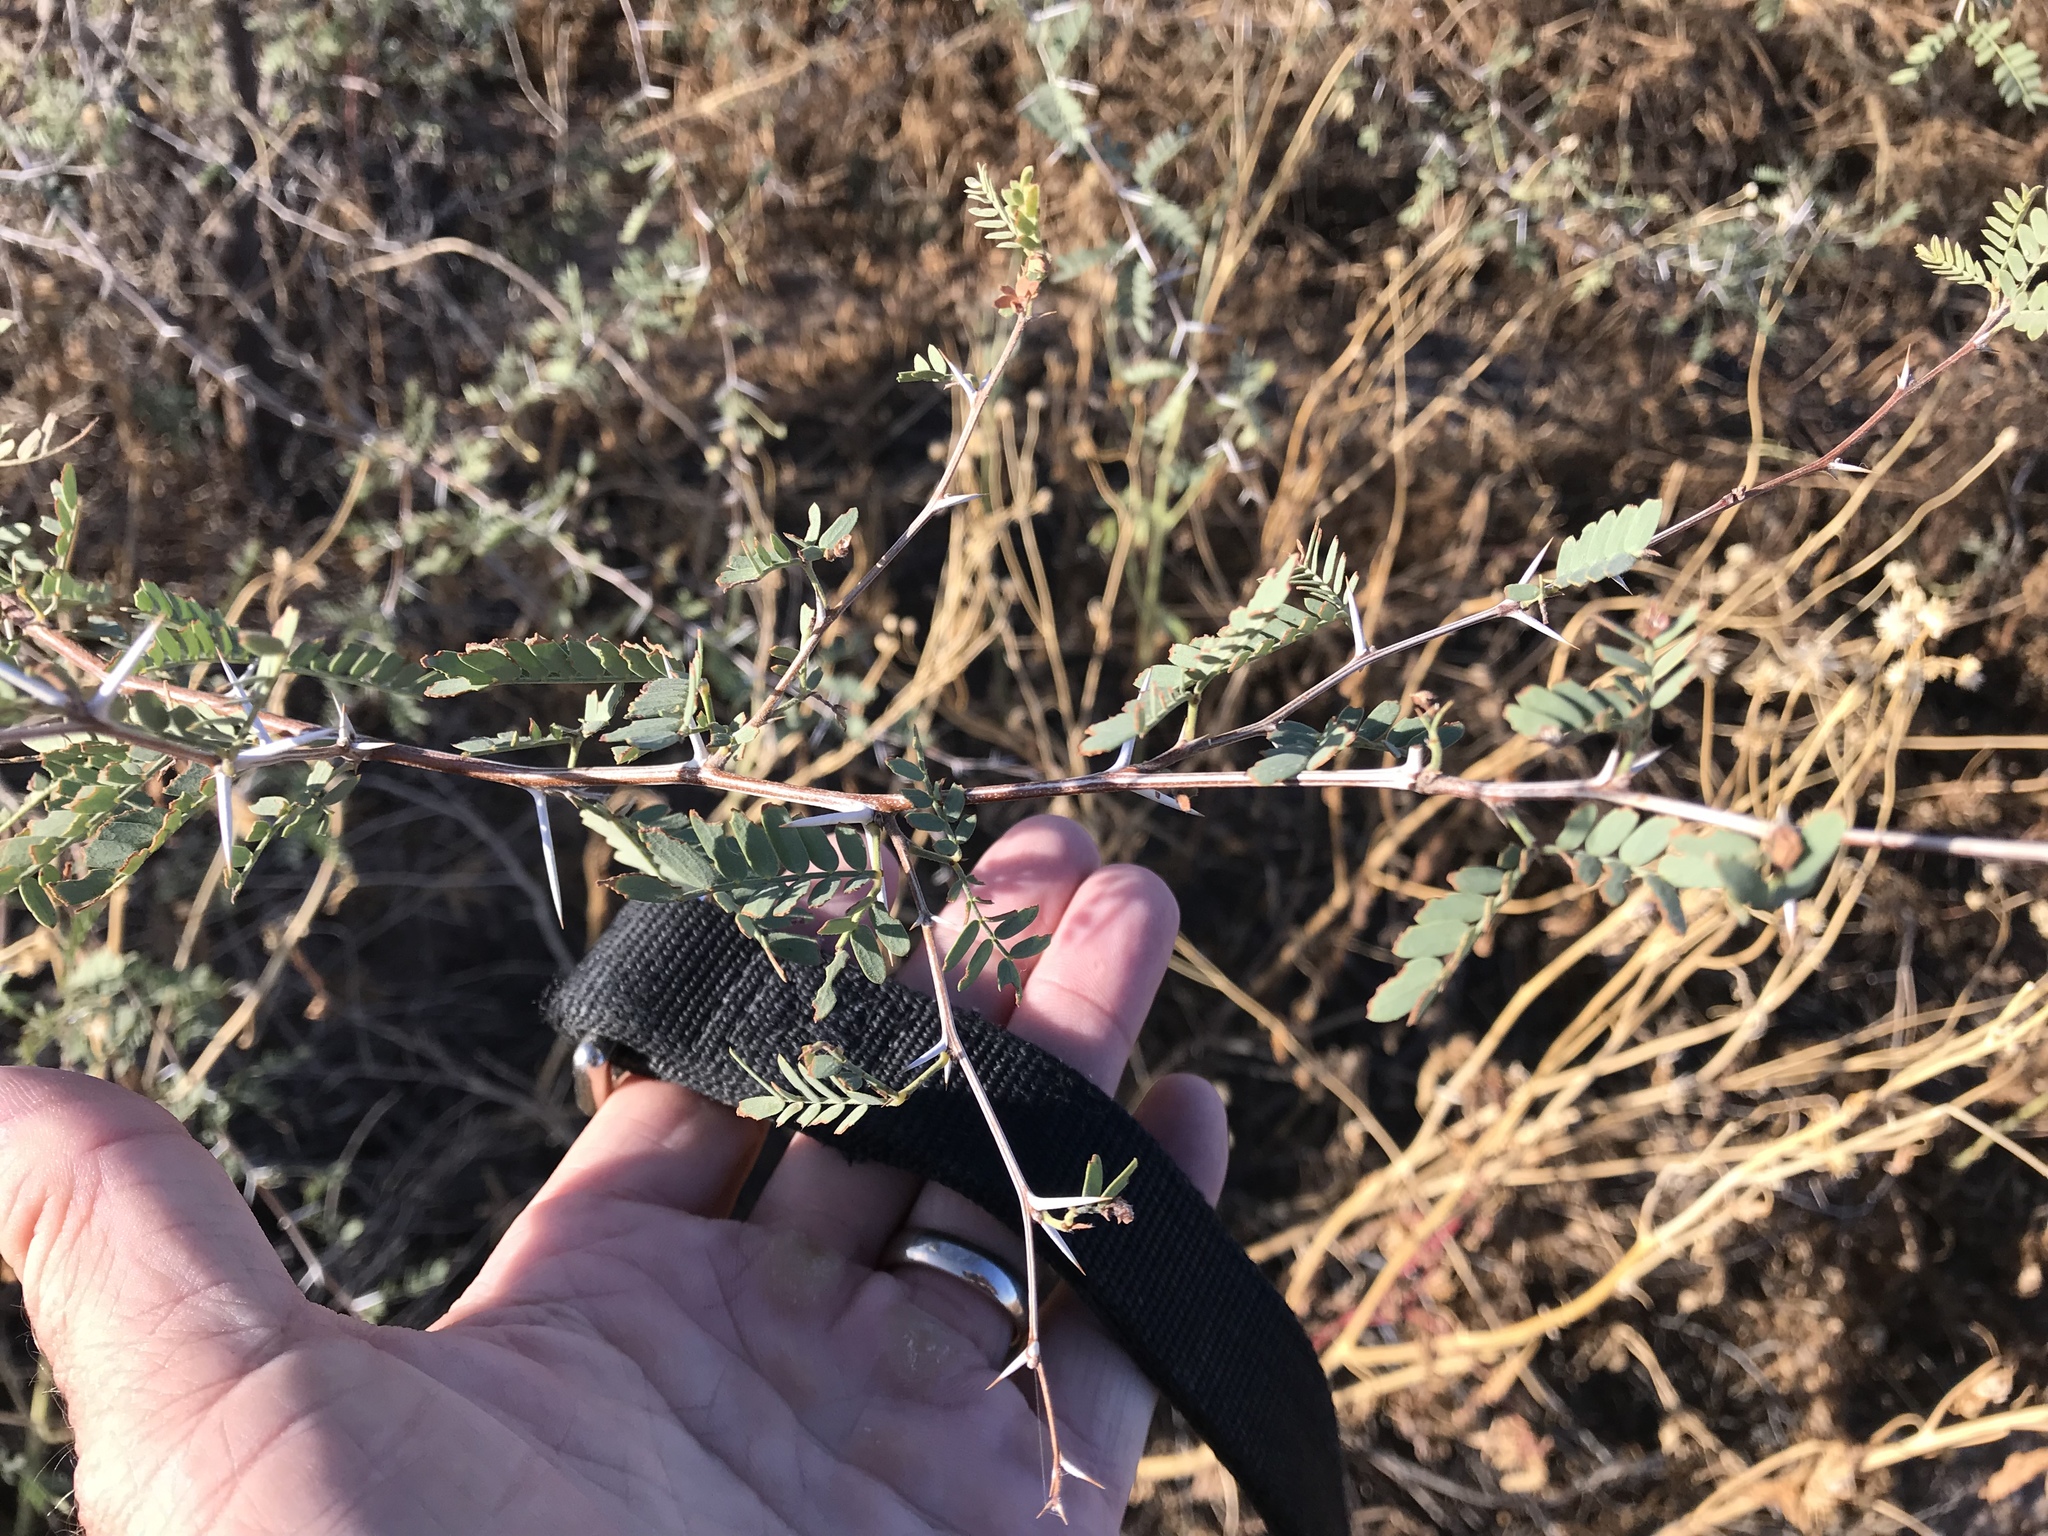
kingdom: Plantae
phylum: Tracheophyta
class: Magnoliopsida
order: Fabales
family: Fabaceae
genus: Senegalia
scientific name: Senegalia greggii
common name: Texas-mimosa
